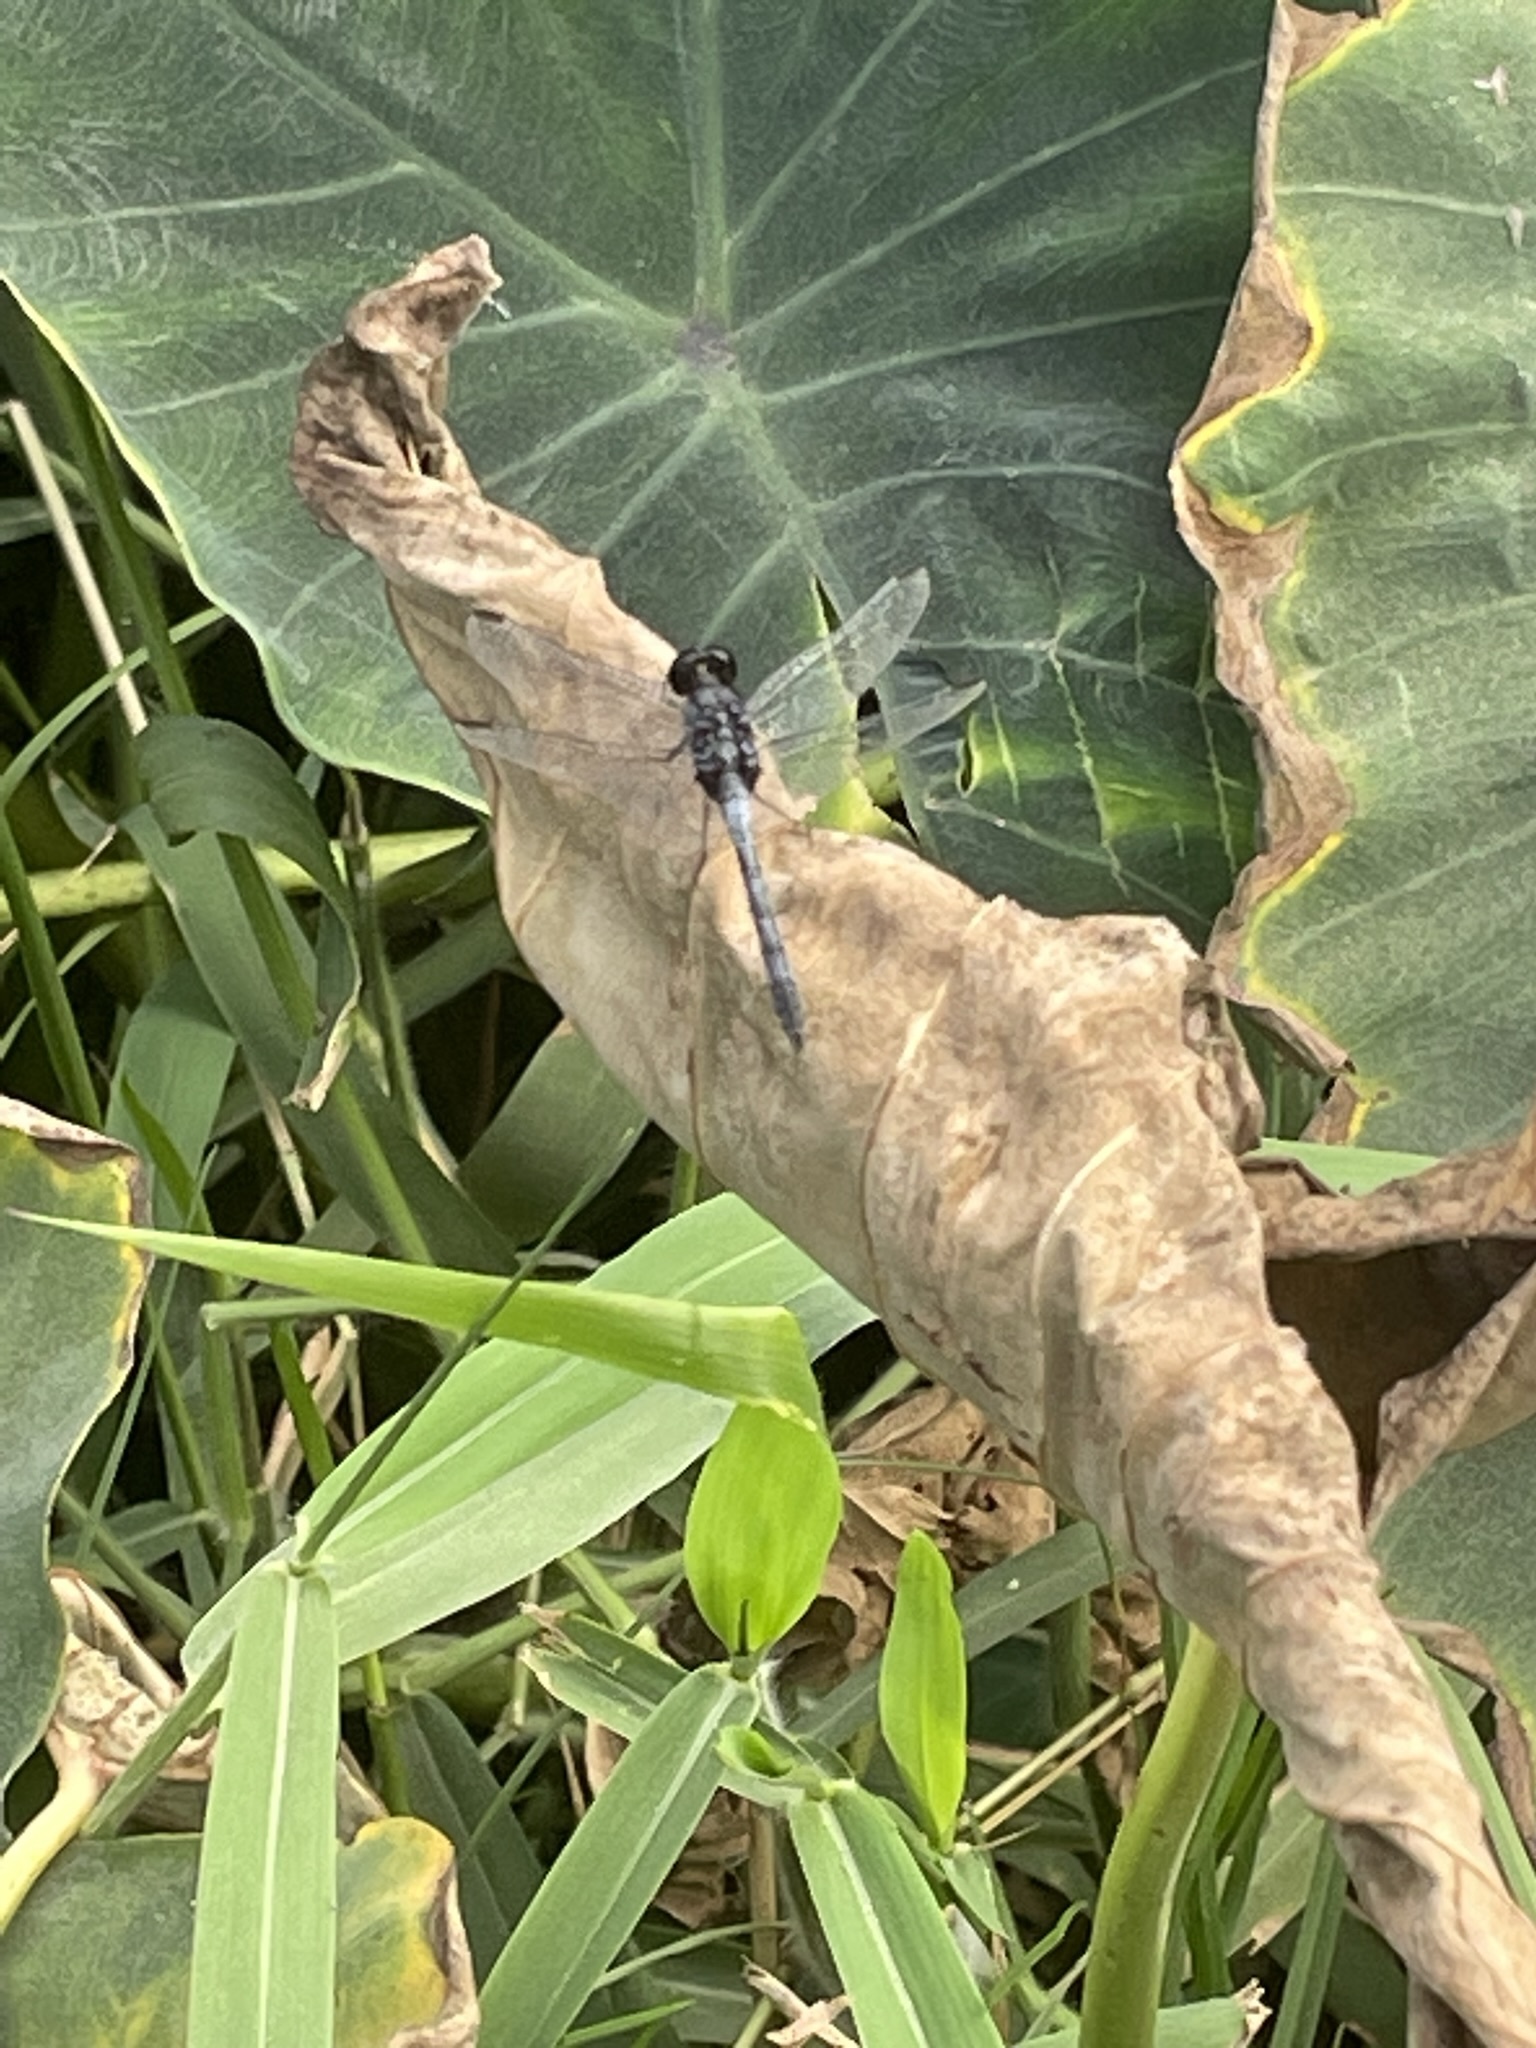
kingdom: Animalia
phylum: Arthropoda
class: Insecta
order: Odonata
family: Libellulidae
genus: Erythrodiplax
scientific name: Erythrodiplax cleopatra
